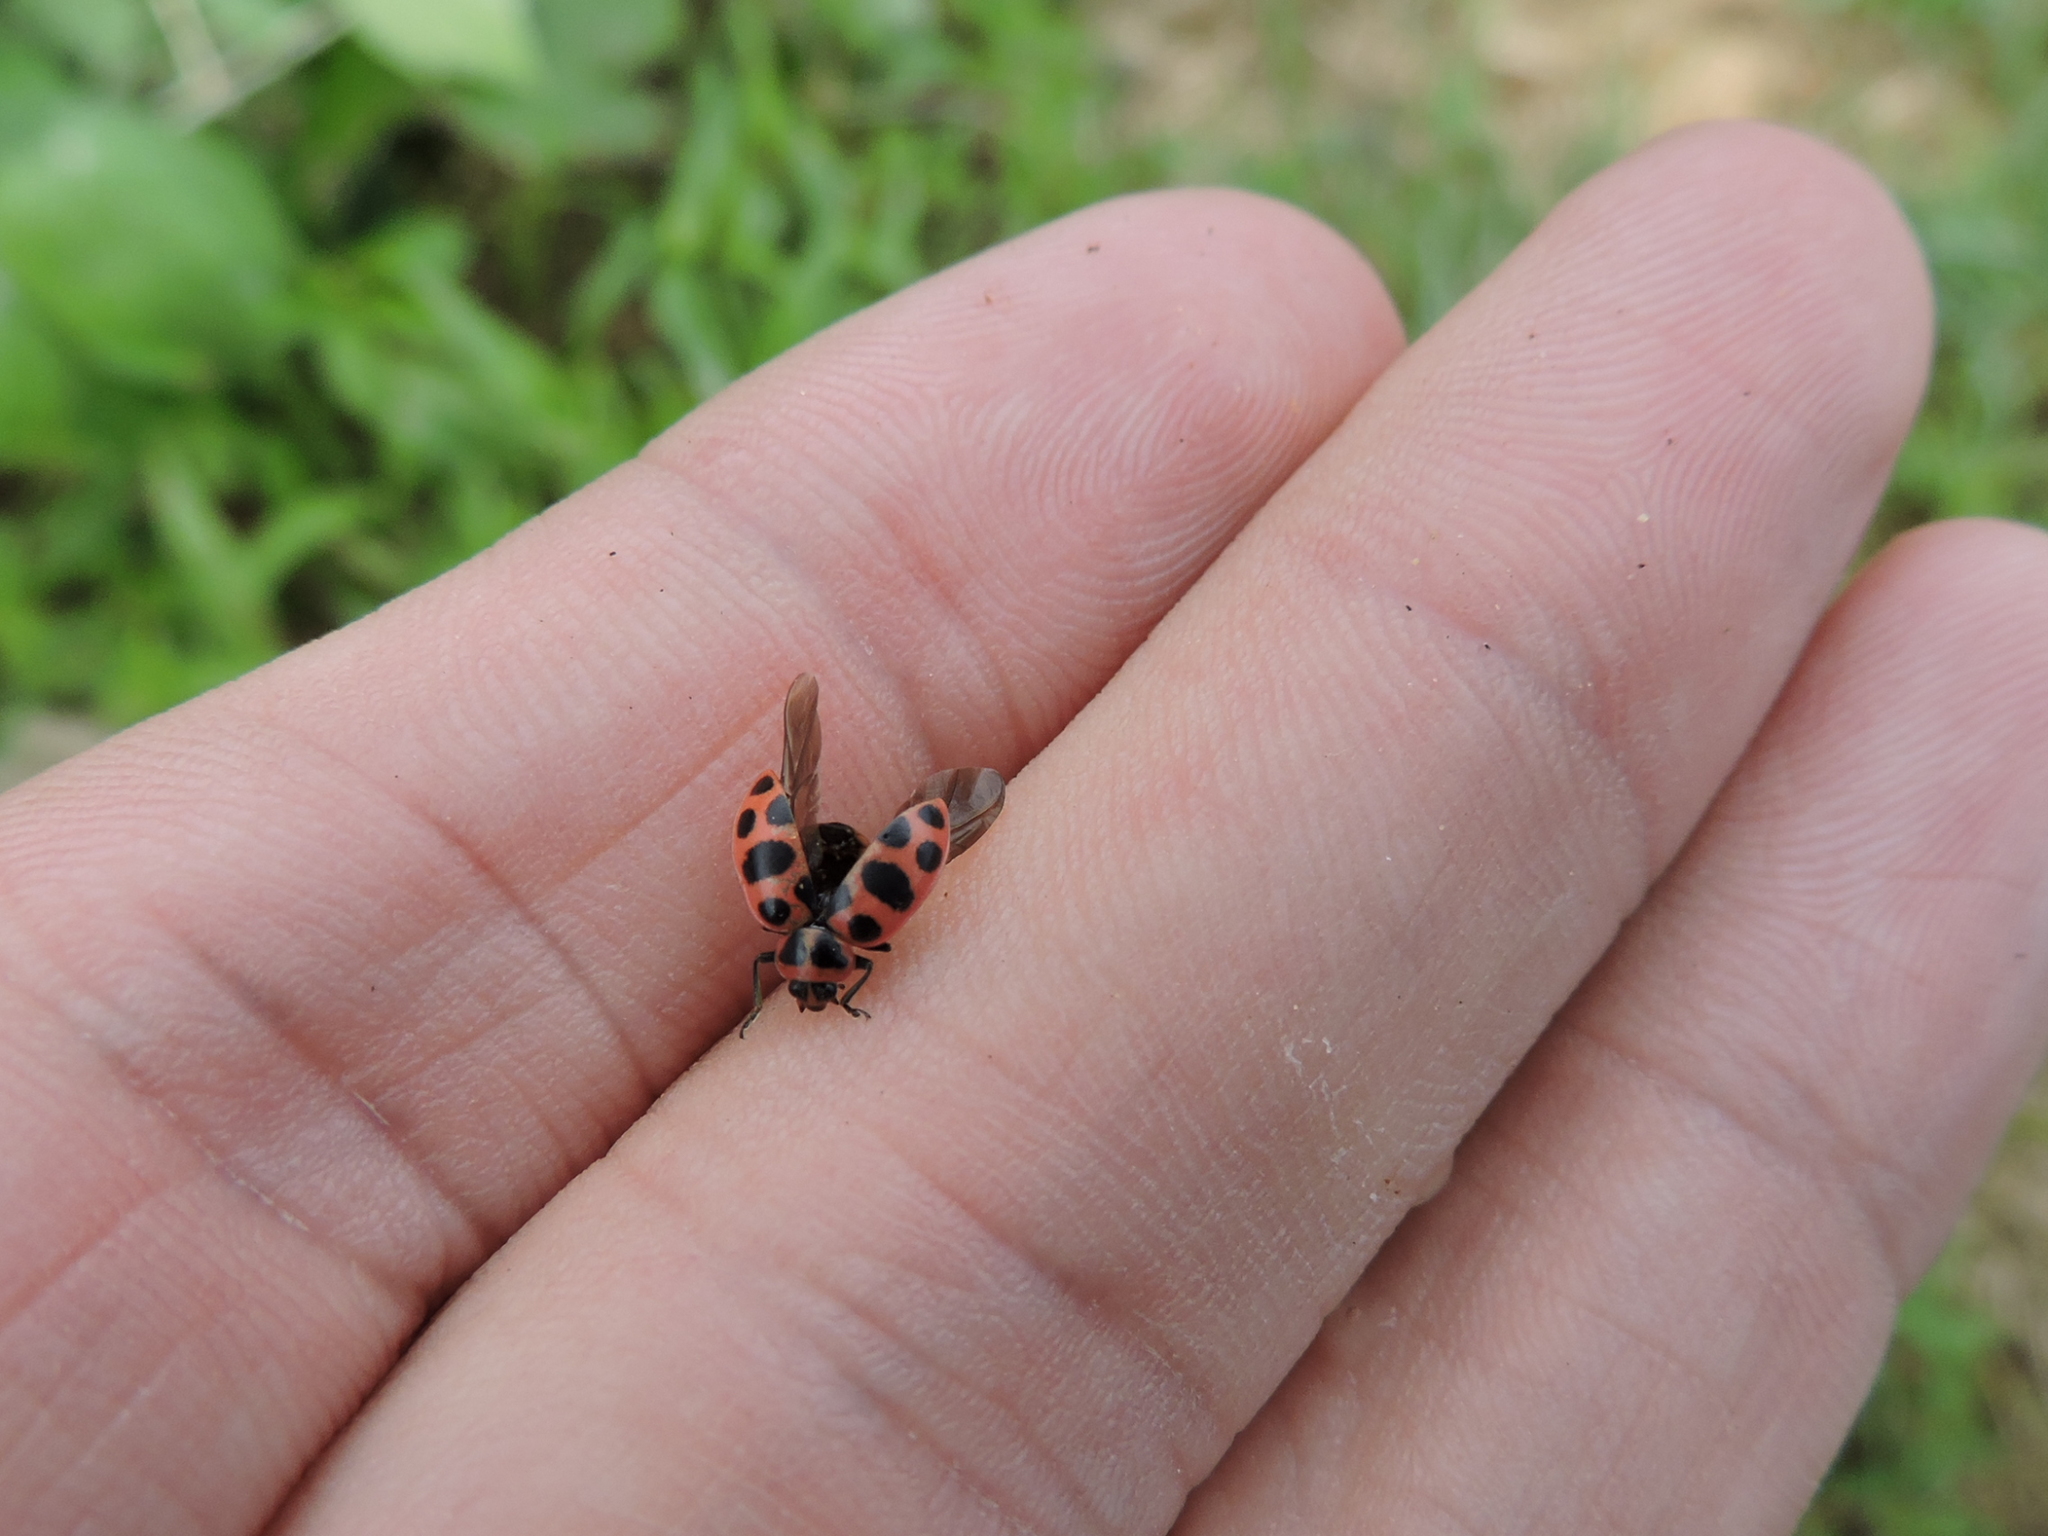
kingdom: Animalia
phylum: Arthropoda
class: Insecta
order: Coleoptera
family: Coccinellidae
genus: Coleomegilla
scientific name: Coleomegilla maculata
